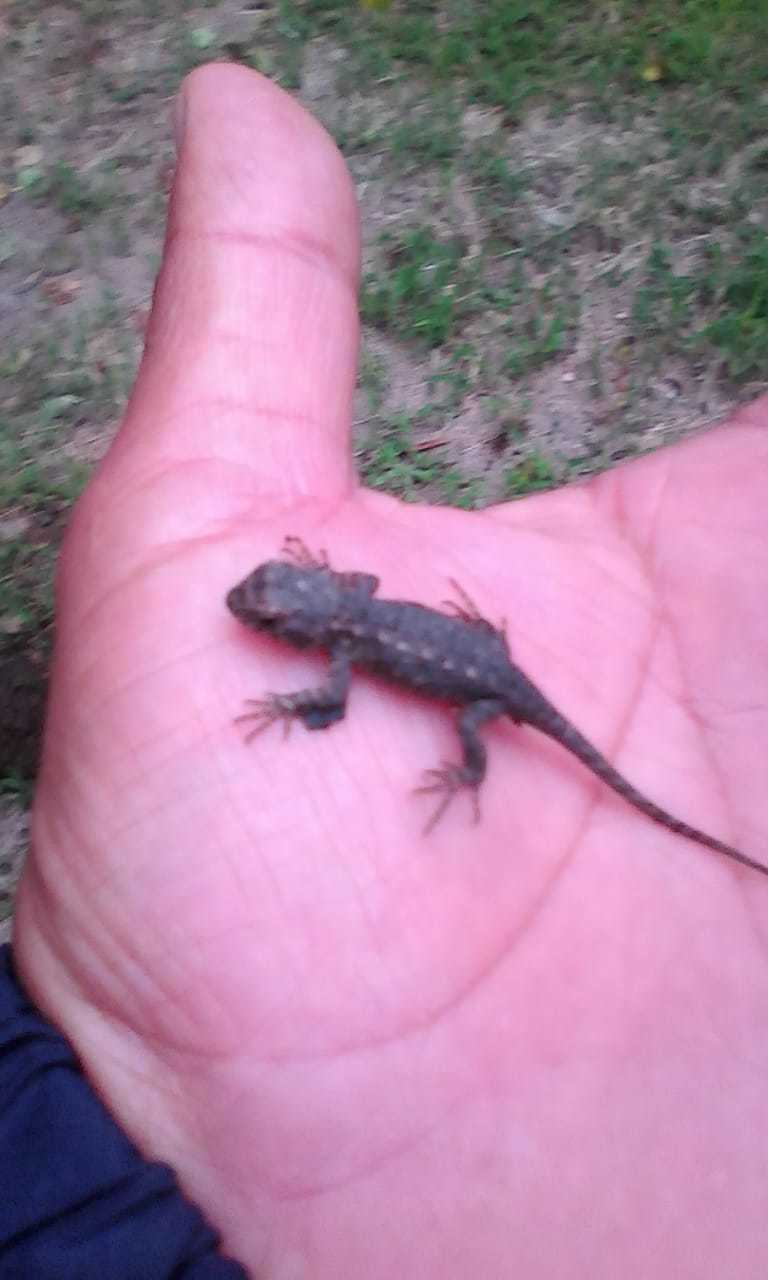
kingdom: Animalia
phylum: Chordata
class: Squamata
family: Phrynosomatidae
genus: Sceloporus
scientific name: Sceloporus spinosus
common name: Blue-spotted spiny lizard [caeruleopunctatus]
